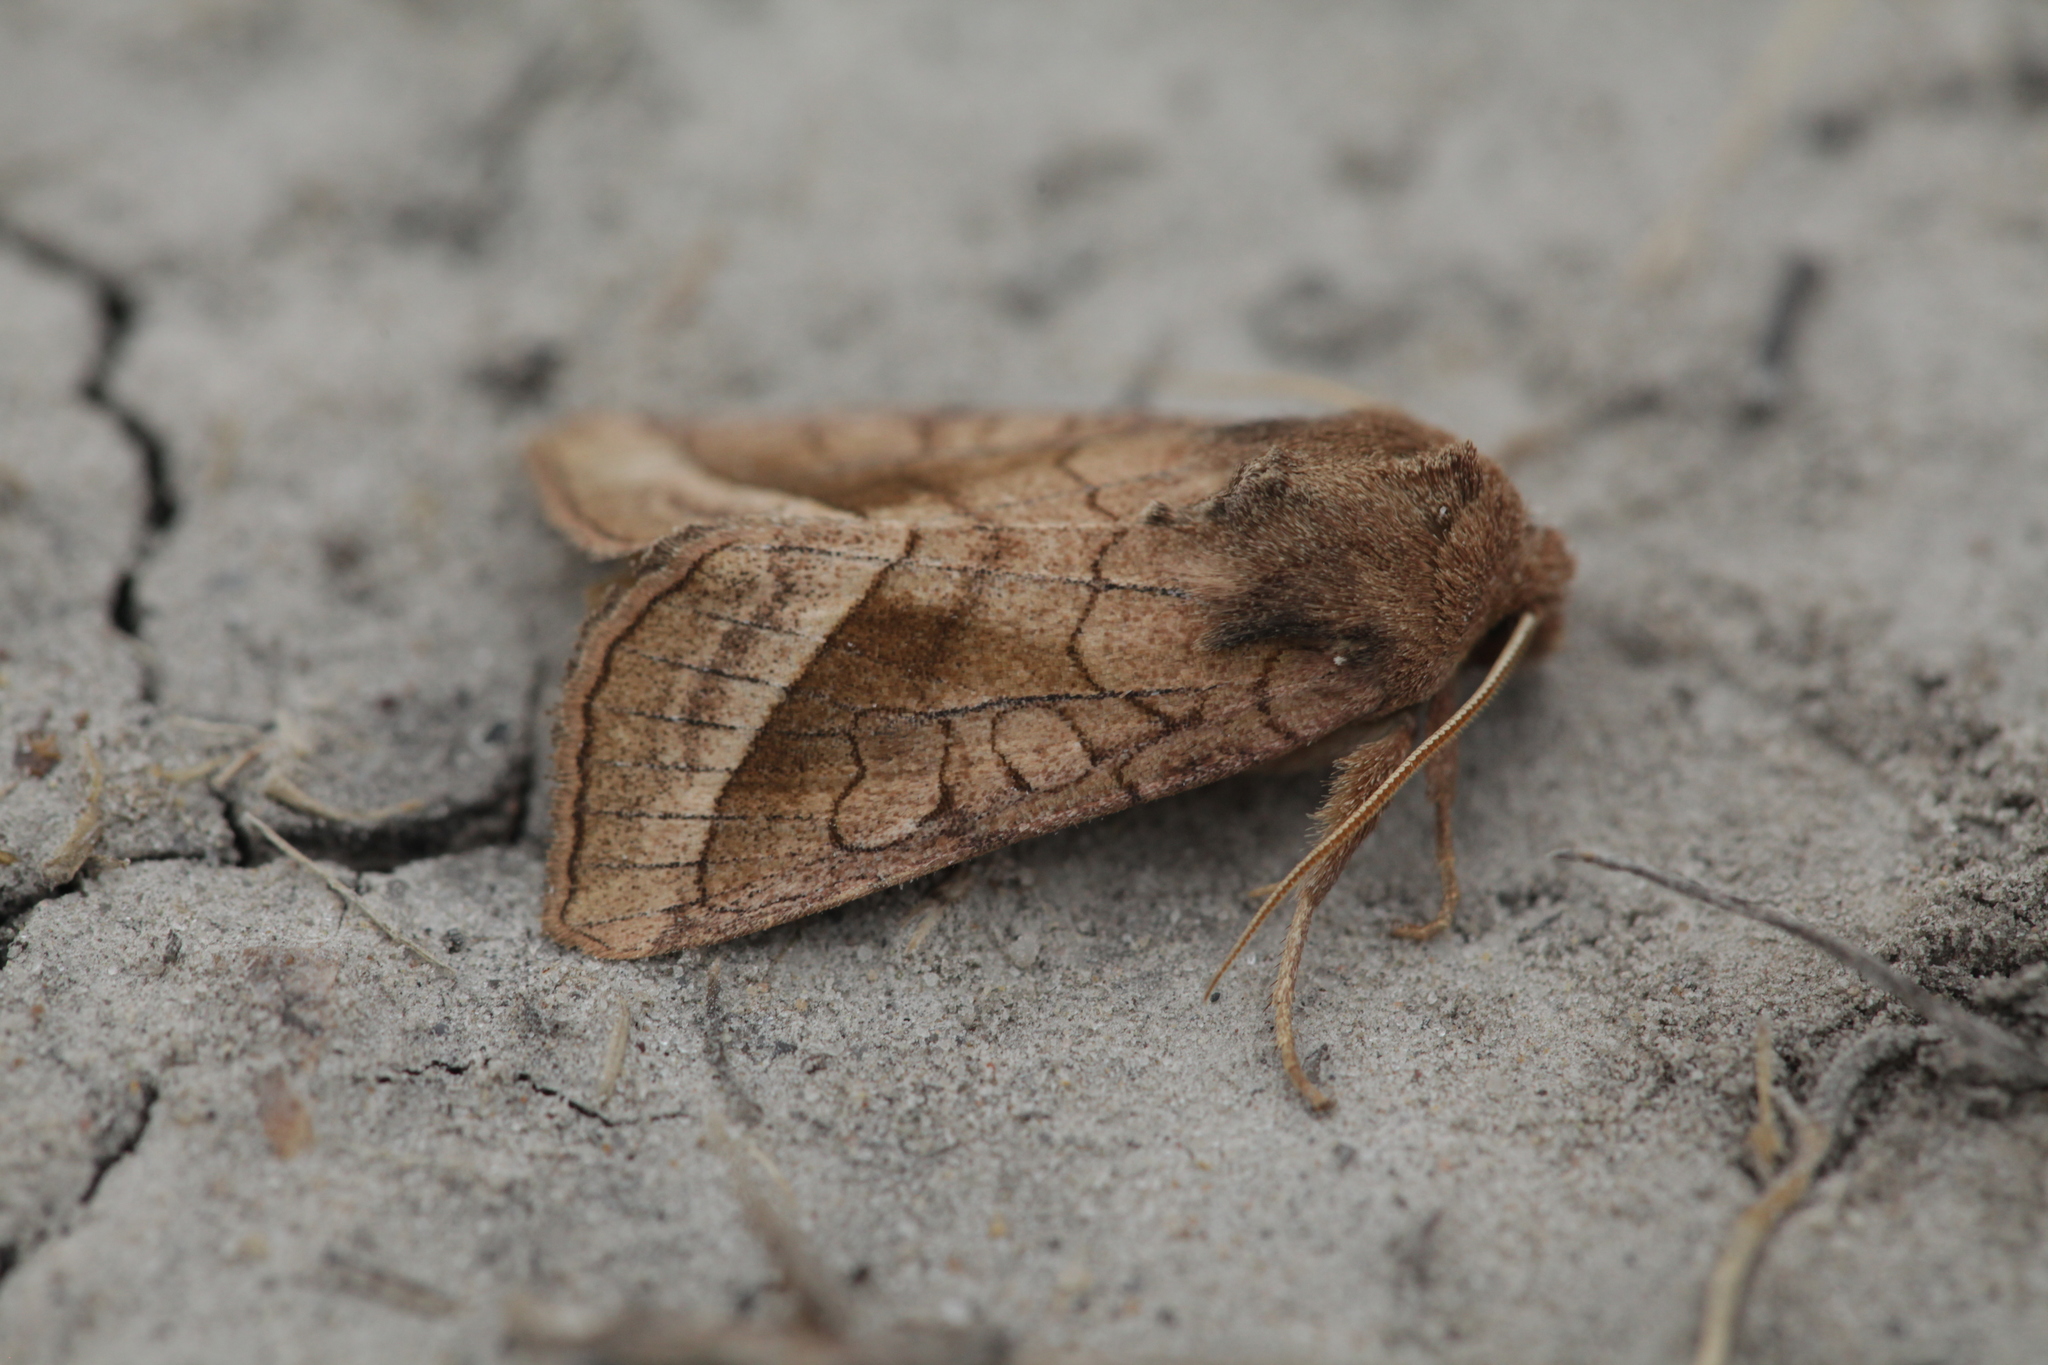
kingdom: Animalia
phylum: Arthropoda
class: Insecta
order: Lepidoptera
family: Noctuidae
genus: Hydraecia
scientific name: Hydraecia ultima
